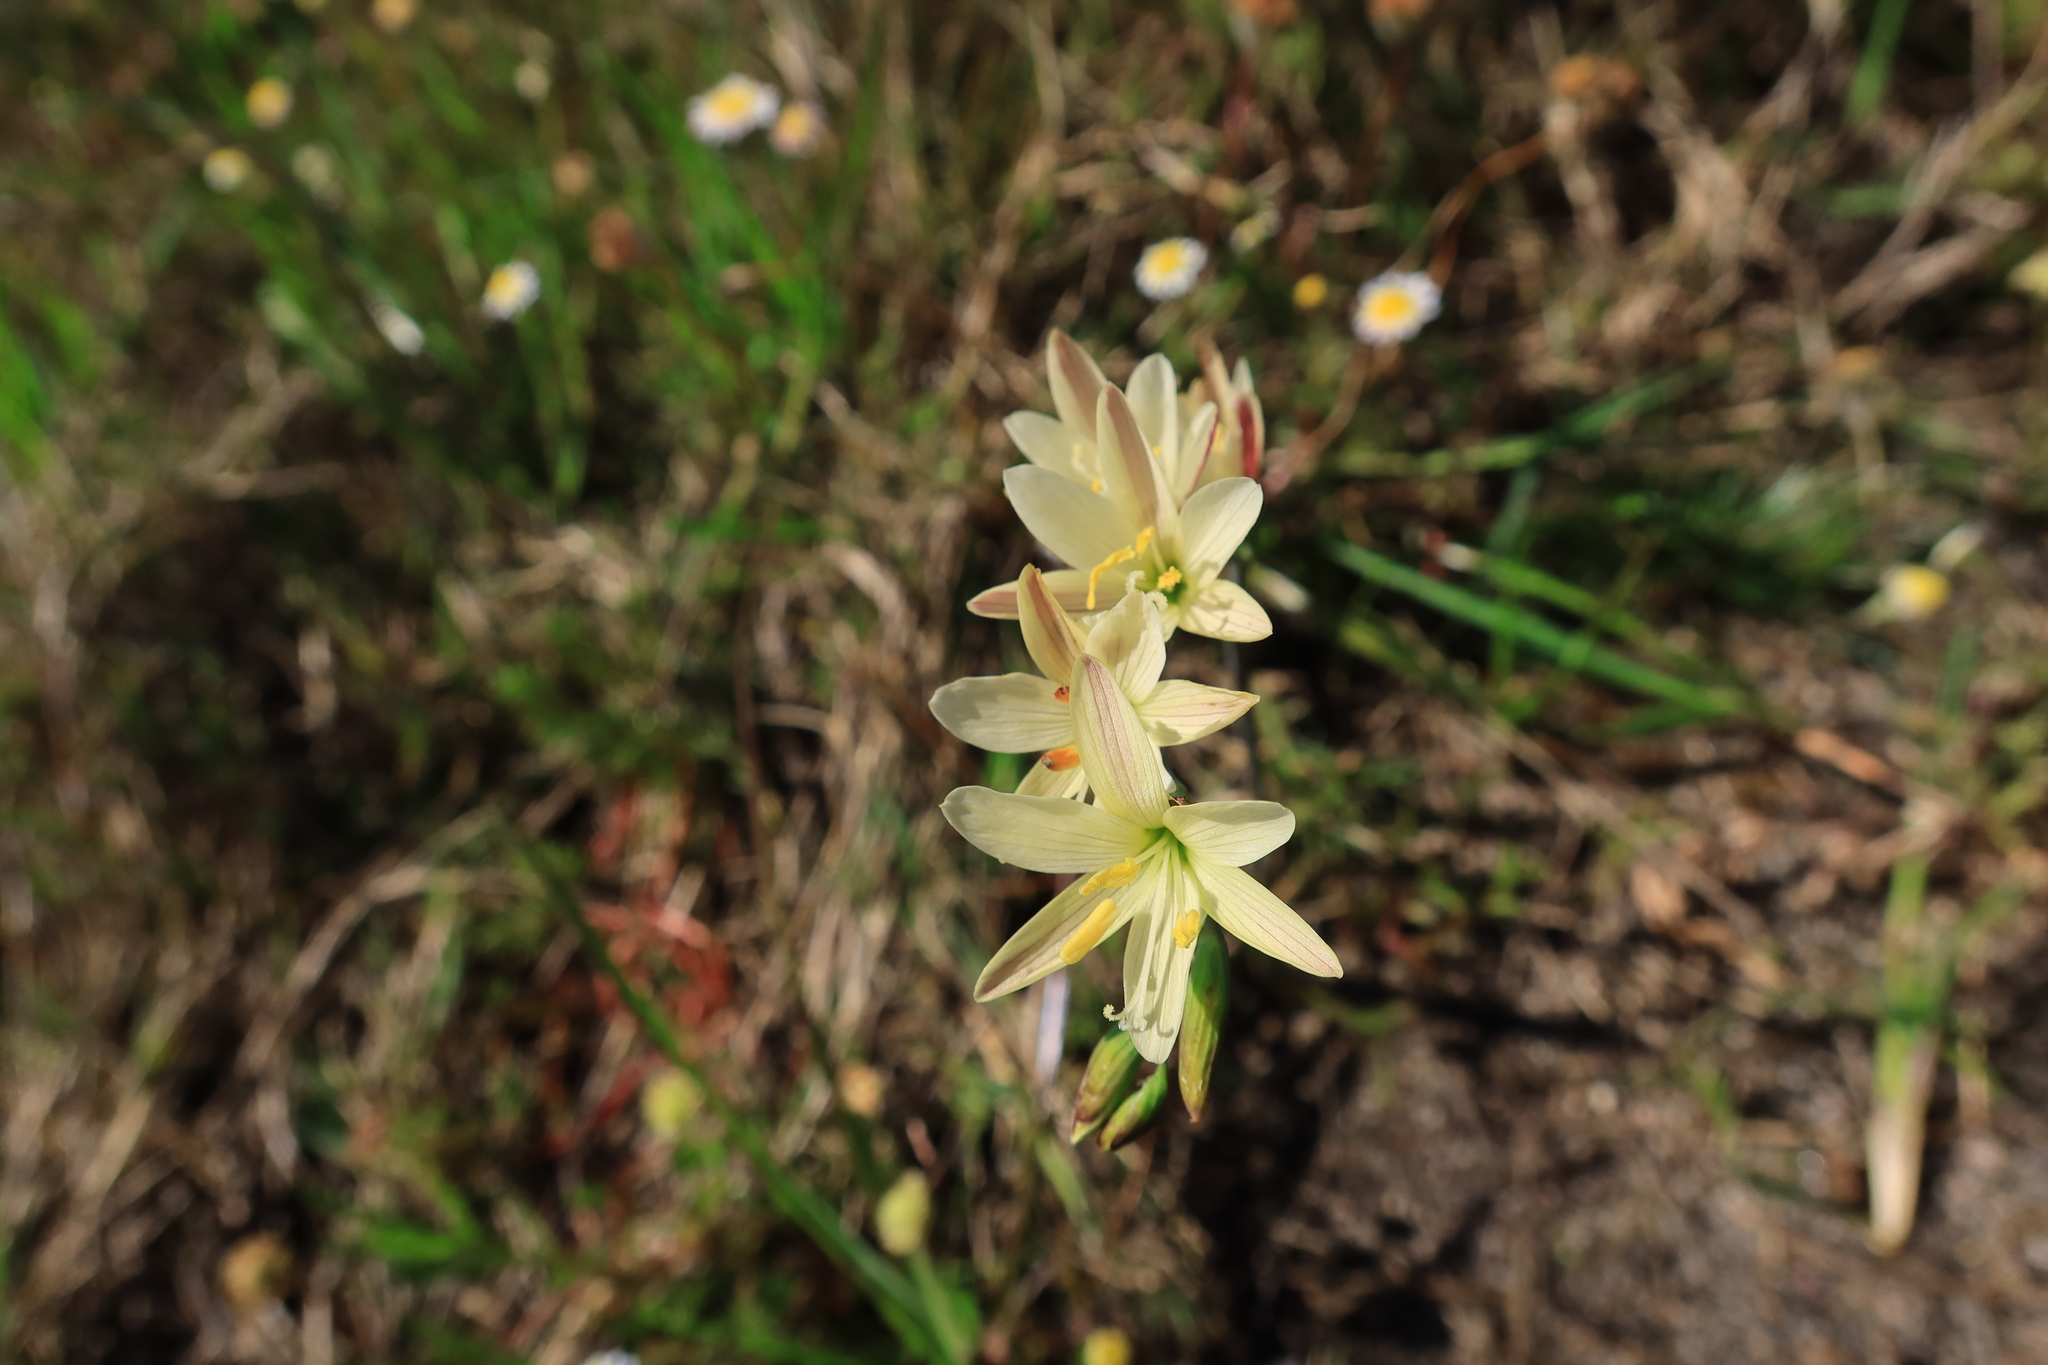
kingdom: Plantae
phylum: Tracheophyta
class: Liliopsida
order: Asparagales
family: Iridaceae
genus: Geissorhiza
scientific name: Geissorhiza imbricata
